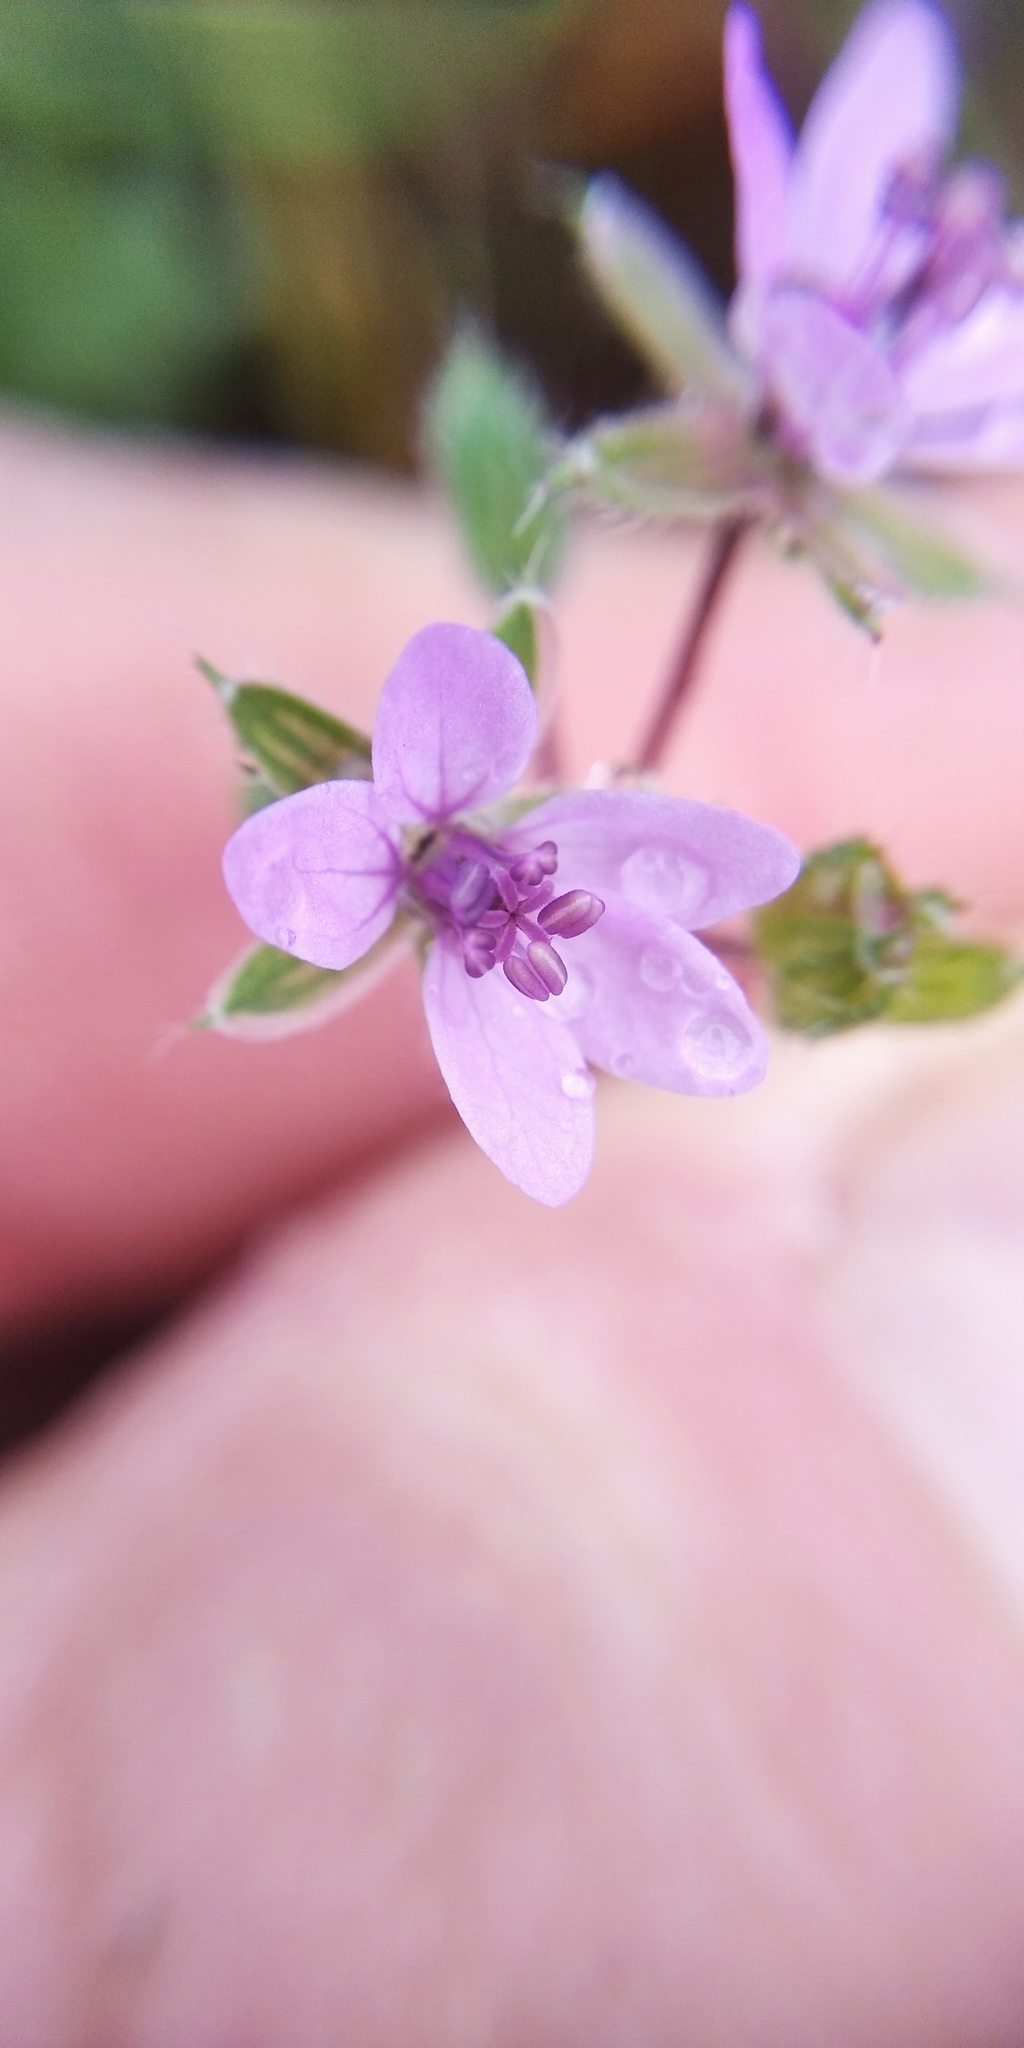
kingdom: Plantae
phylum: Tracheophyta
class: Magnoliopsida
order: Geraniales
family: Geraniaceae
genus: Erodium
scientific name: Erodium cicutarium
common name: Common stork's-bill
